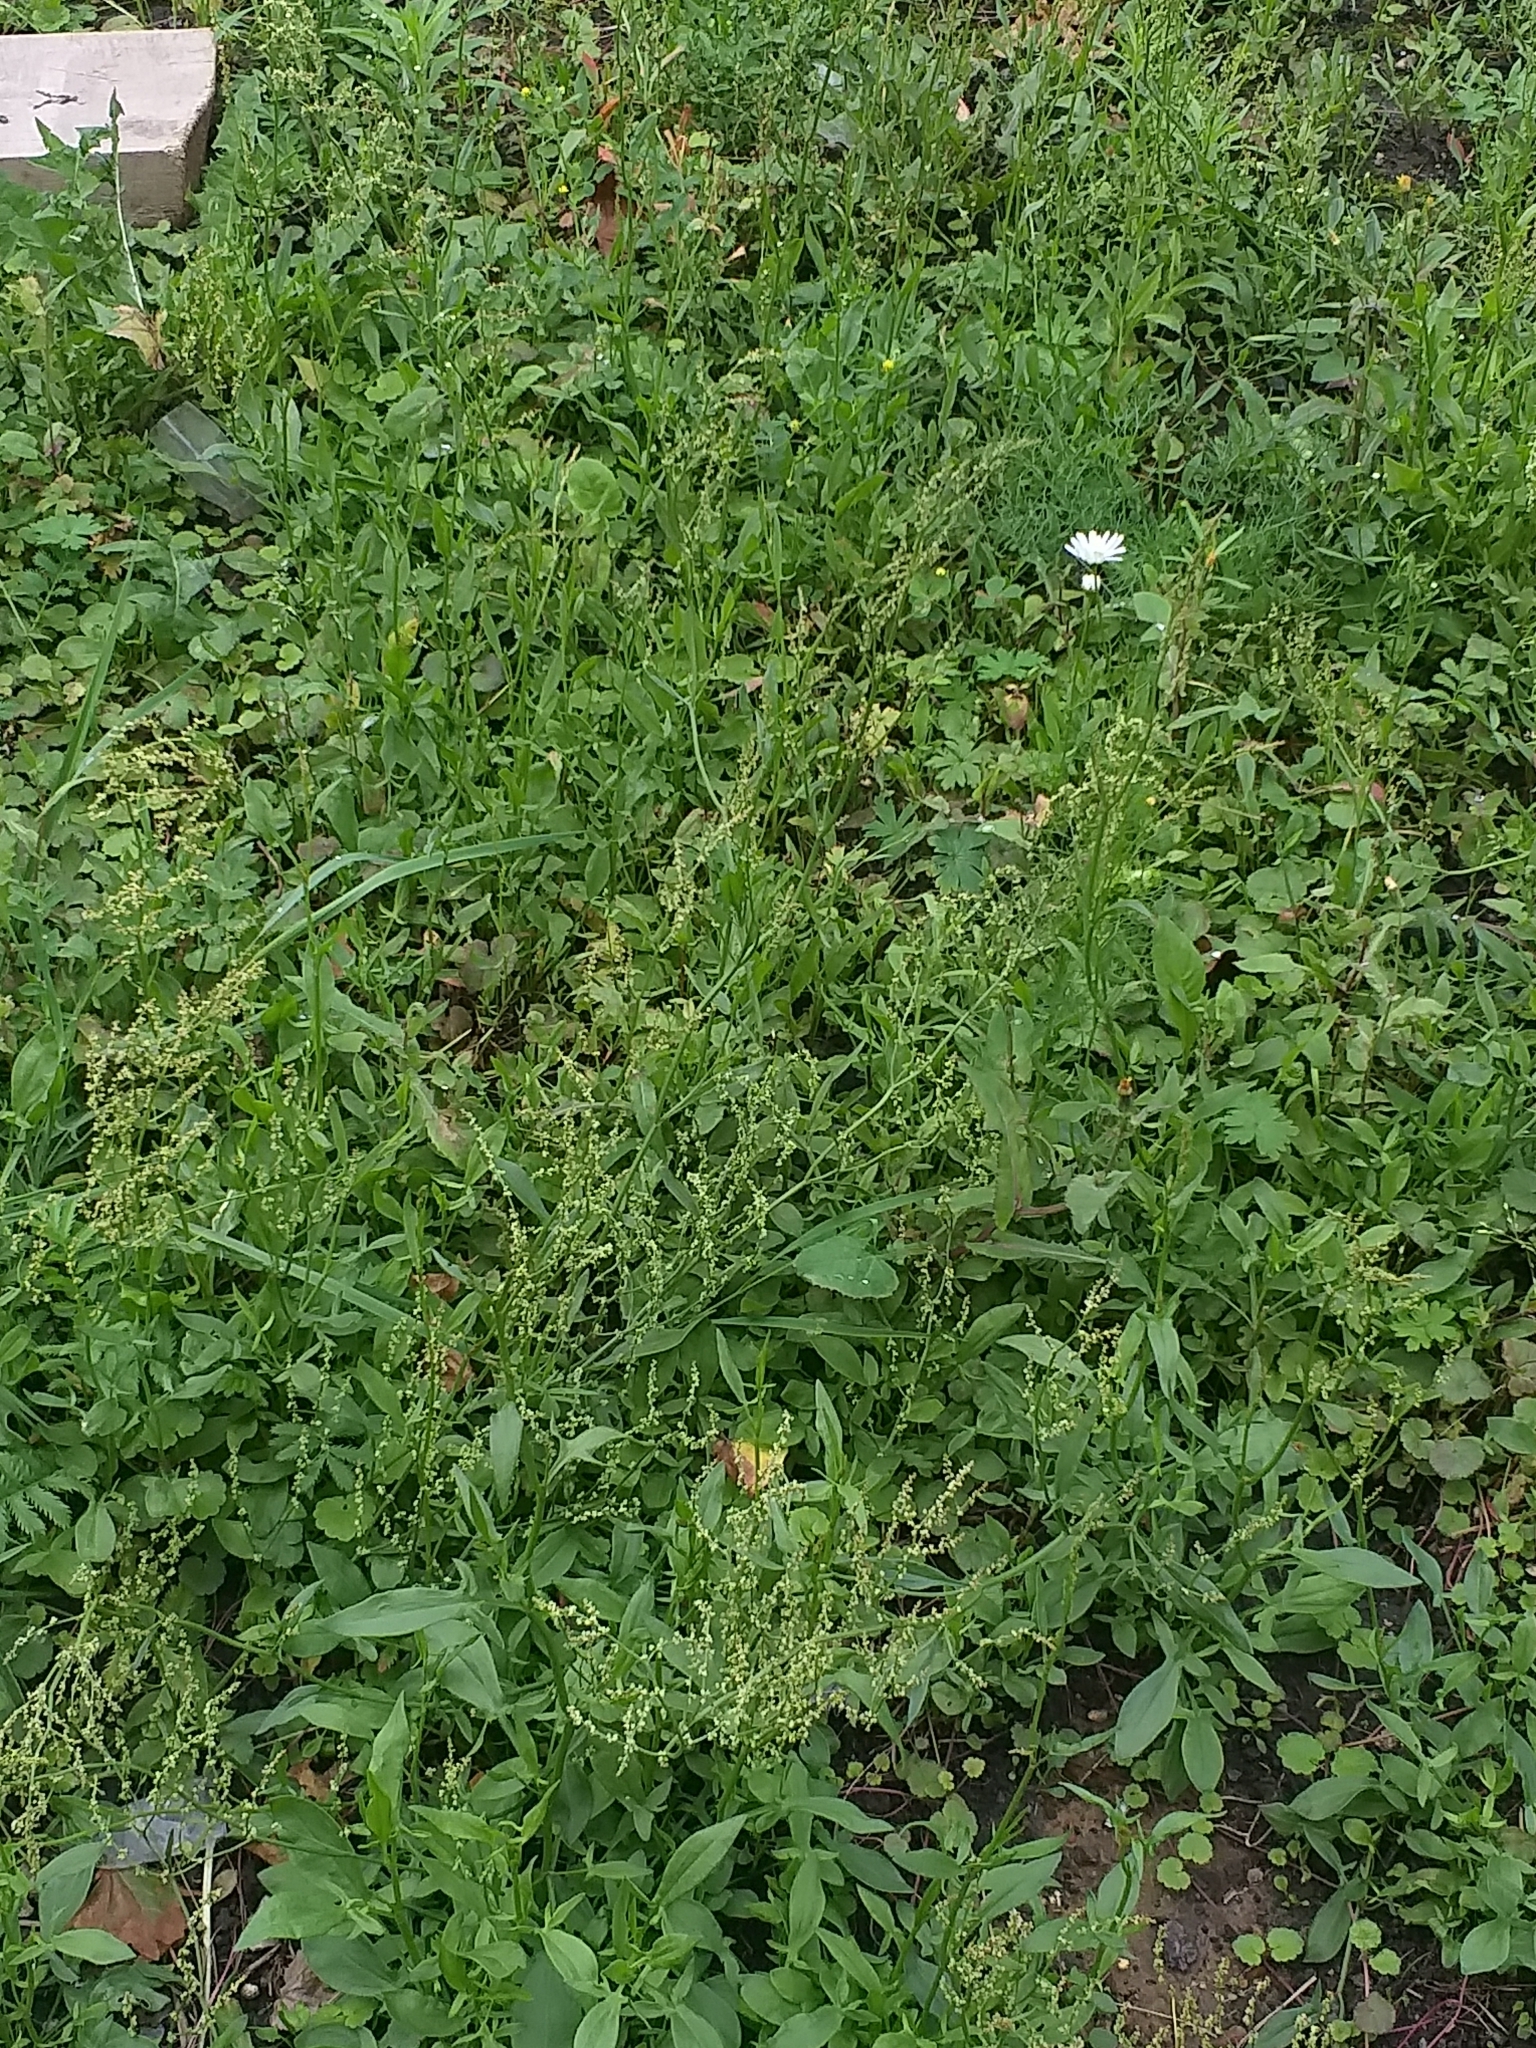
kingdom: Plantae
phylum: Tracheophyta
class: Magnoliopsida
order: Caryophyllales
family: Polygonaceae
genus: Rumex
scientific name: Rumex acetosella
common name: Common sheep sorrel
